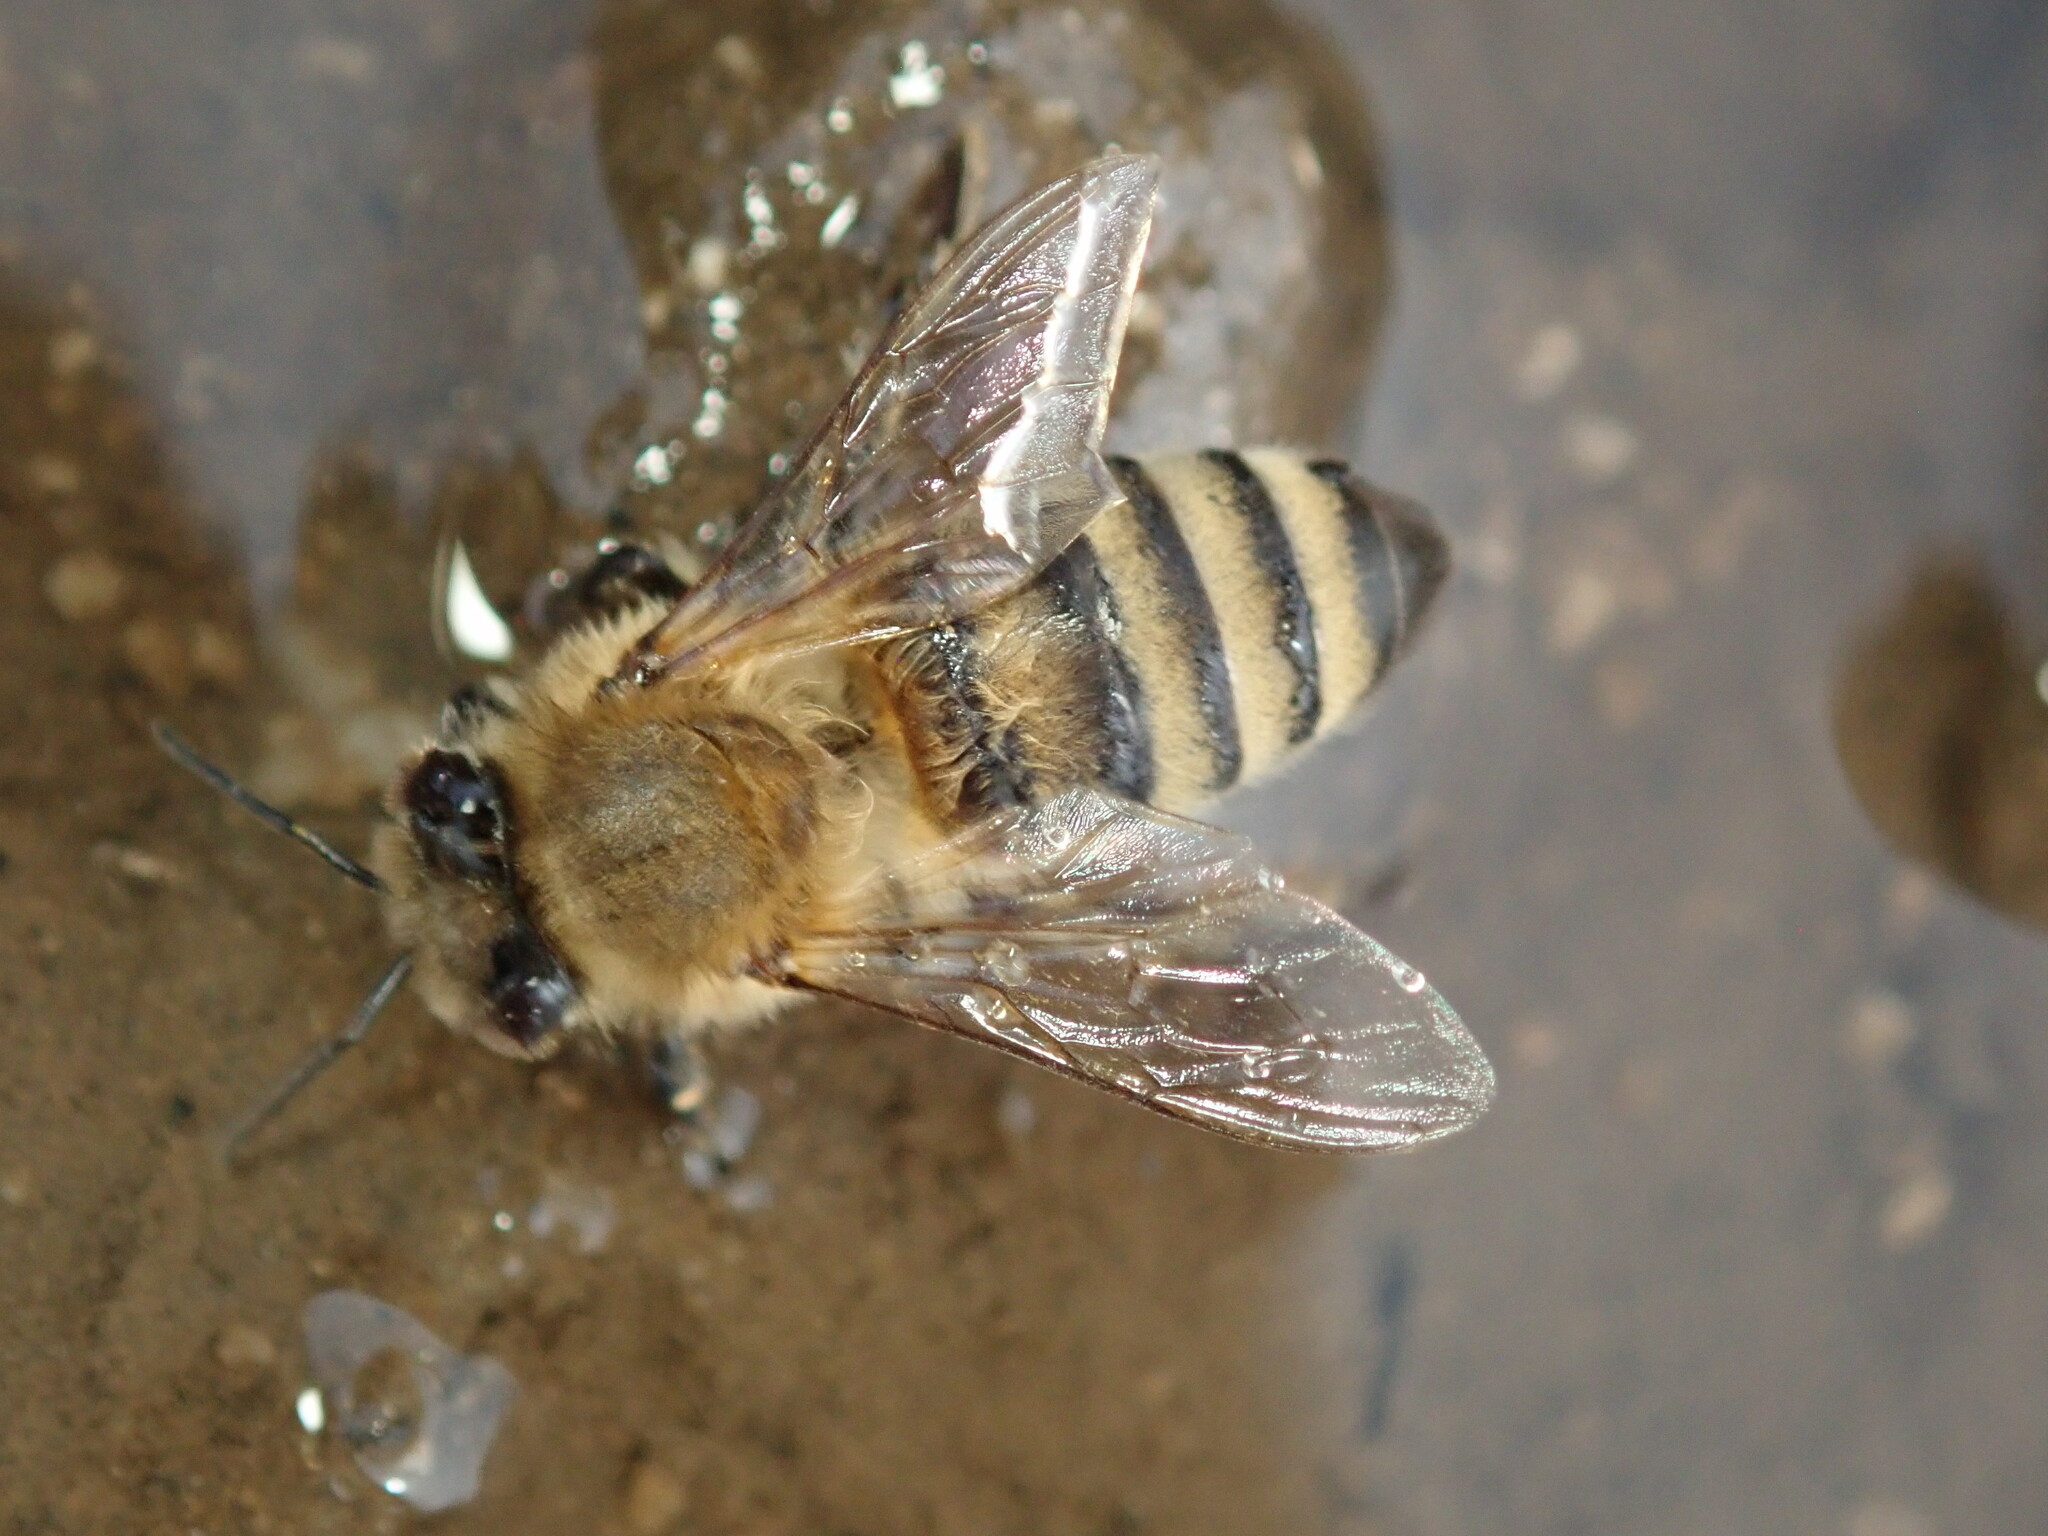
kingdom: Animalia
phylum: Arthropoda
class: Insecta
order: Hymenoptera
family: Apidae
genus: Apis
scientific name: Apis mellifera
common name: Honey bee
